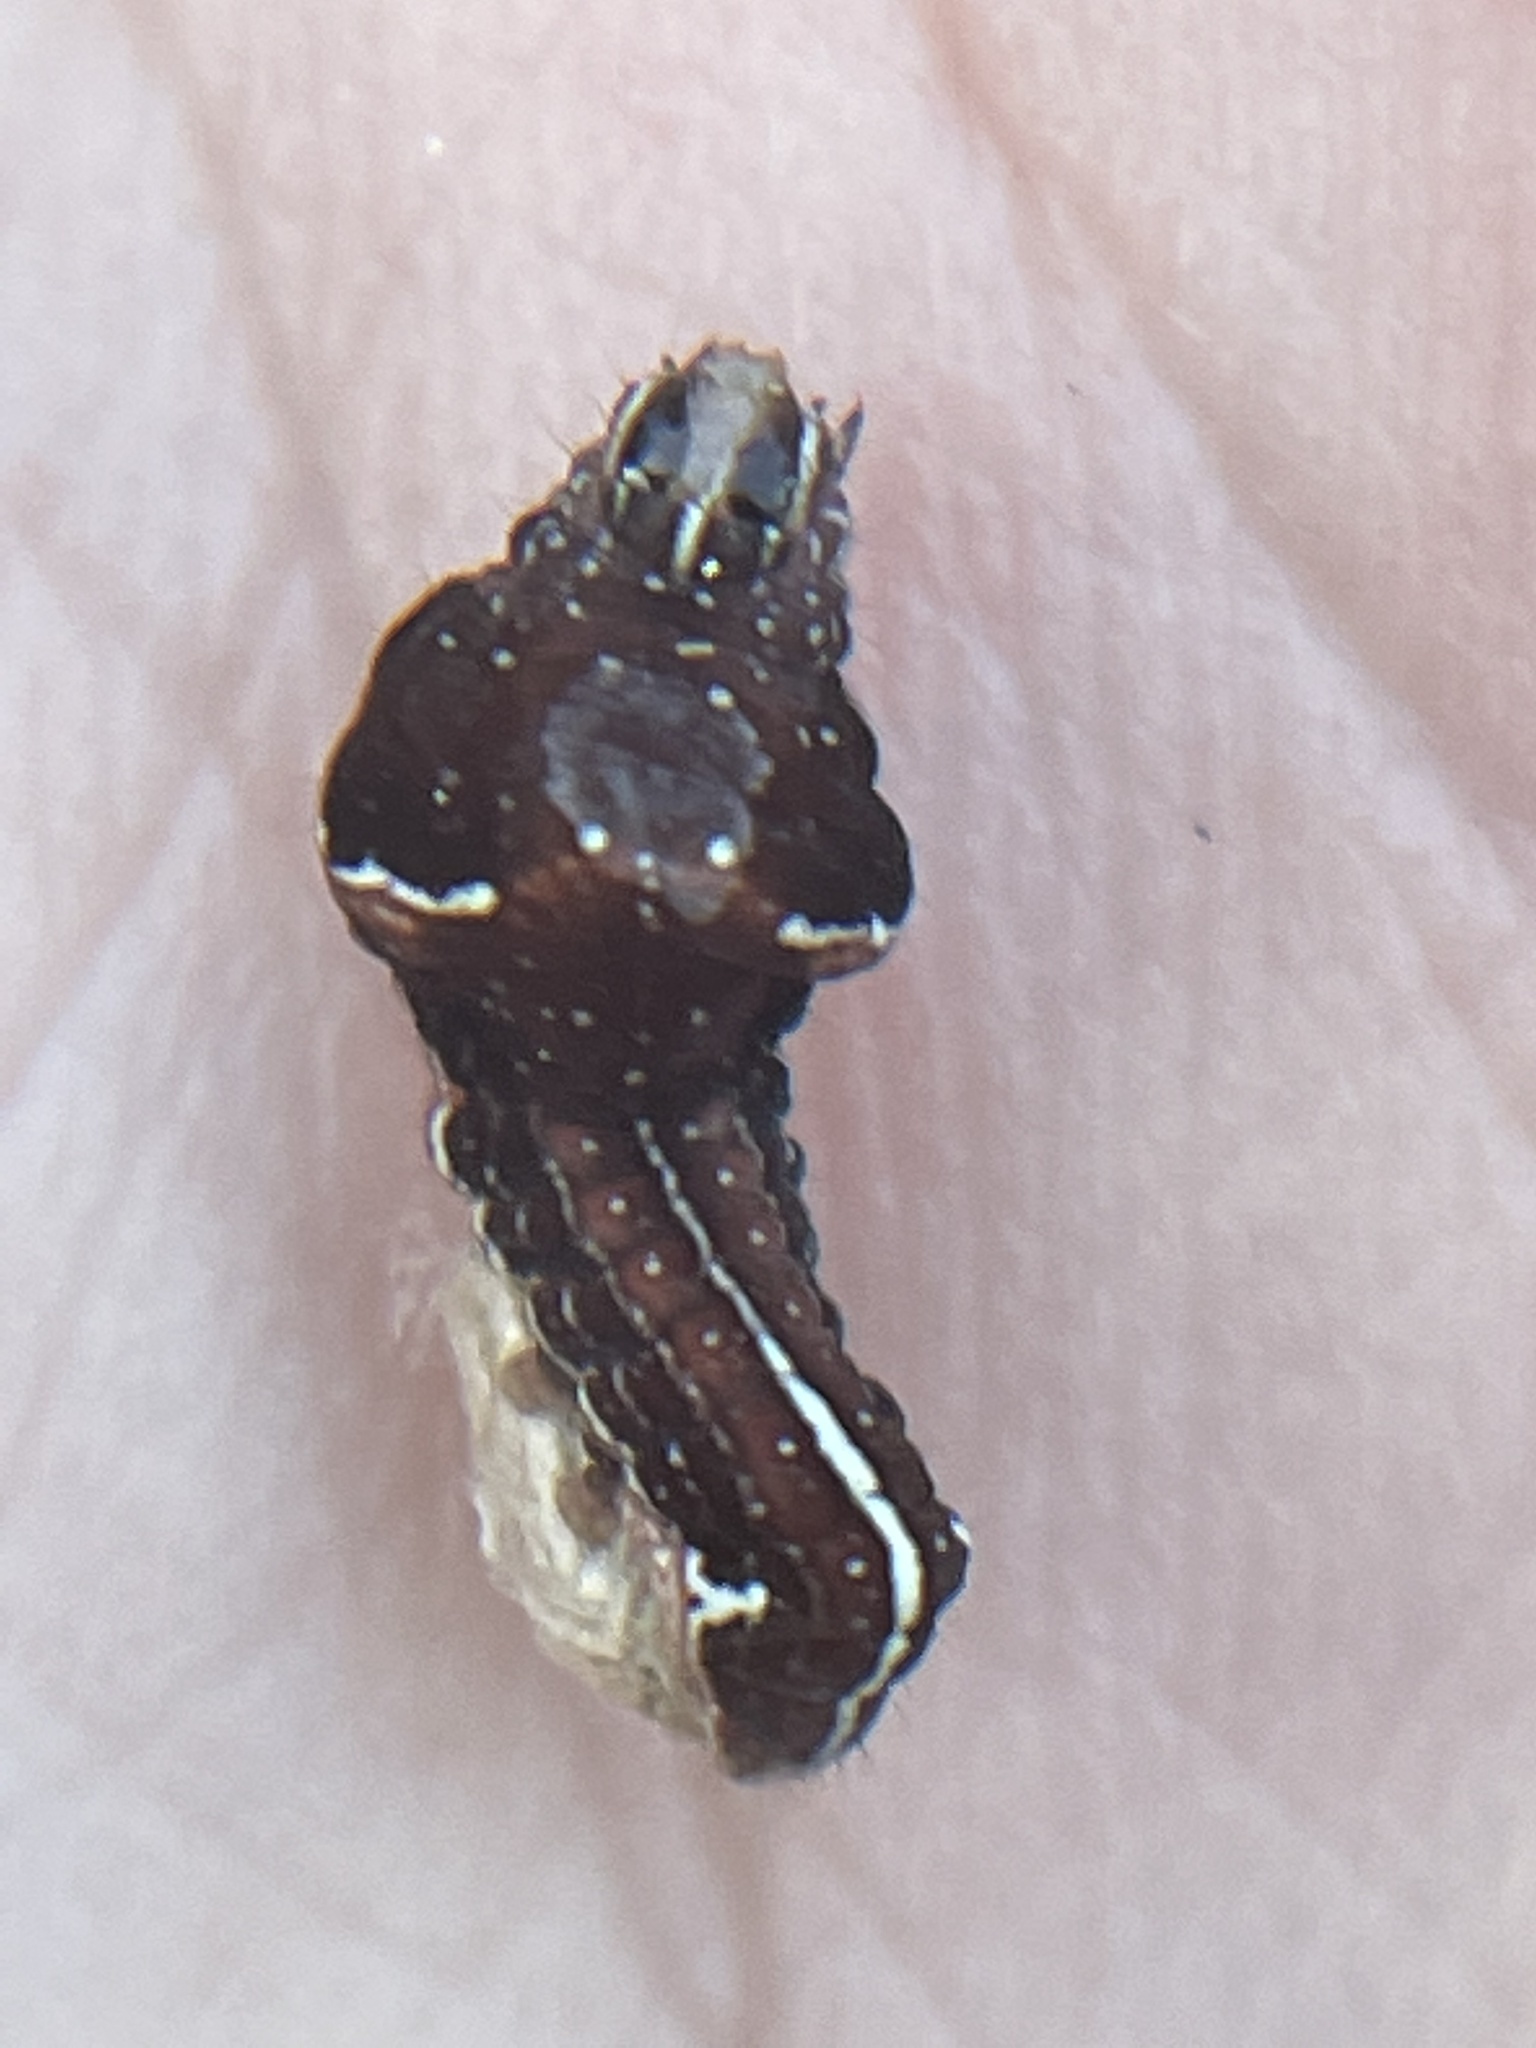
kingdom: Animalia
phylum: Arthropoda
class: Insecta
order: Lepidoptera
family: Noctuidae
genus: Galgula
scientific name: Galgula partita
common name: Wedgeling
